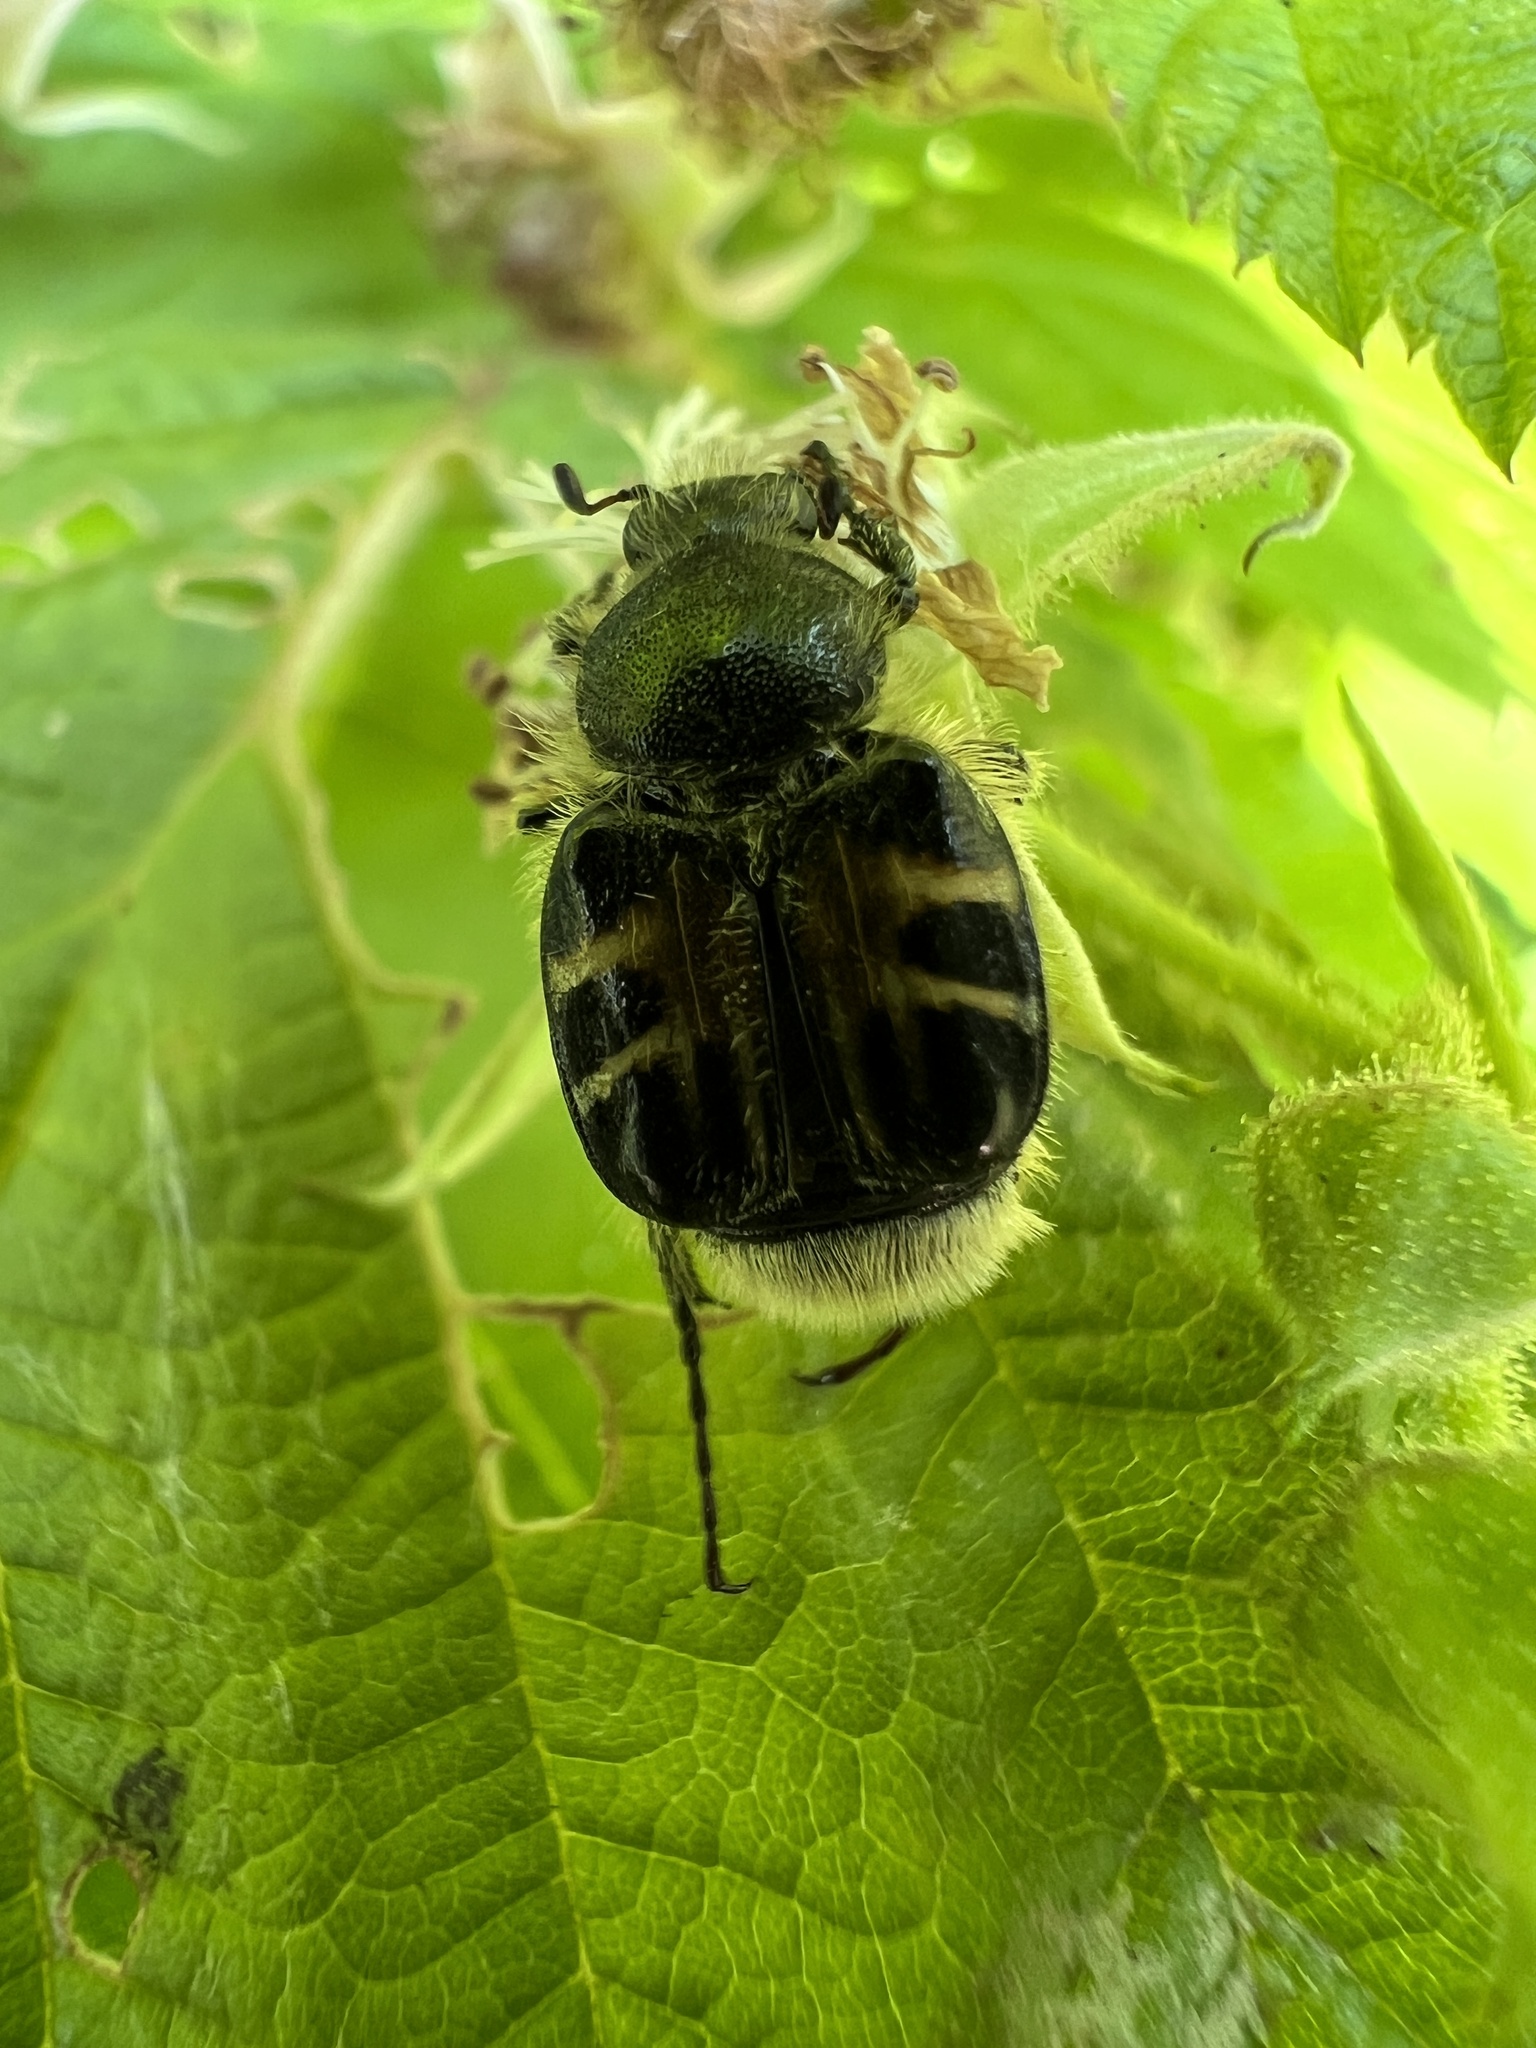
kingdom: Animalia
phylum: Arthropoda
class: Insecta
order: Coleoptera
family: Scarabaeidae
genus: Trichiotinus
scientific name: Trichiotinus assimilis
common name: Bee-mimic beetle
